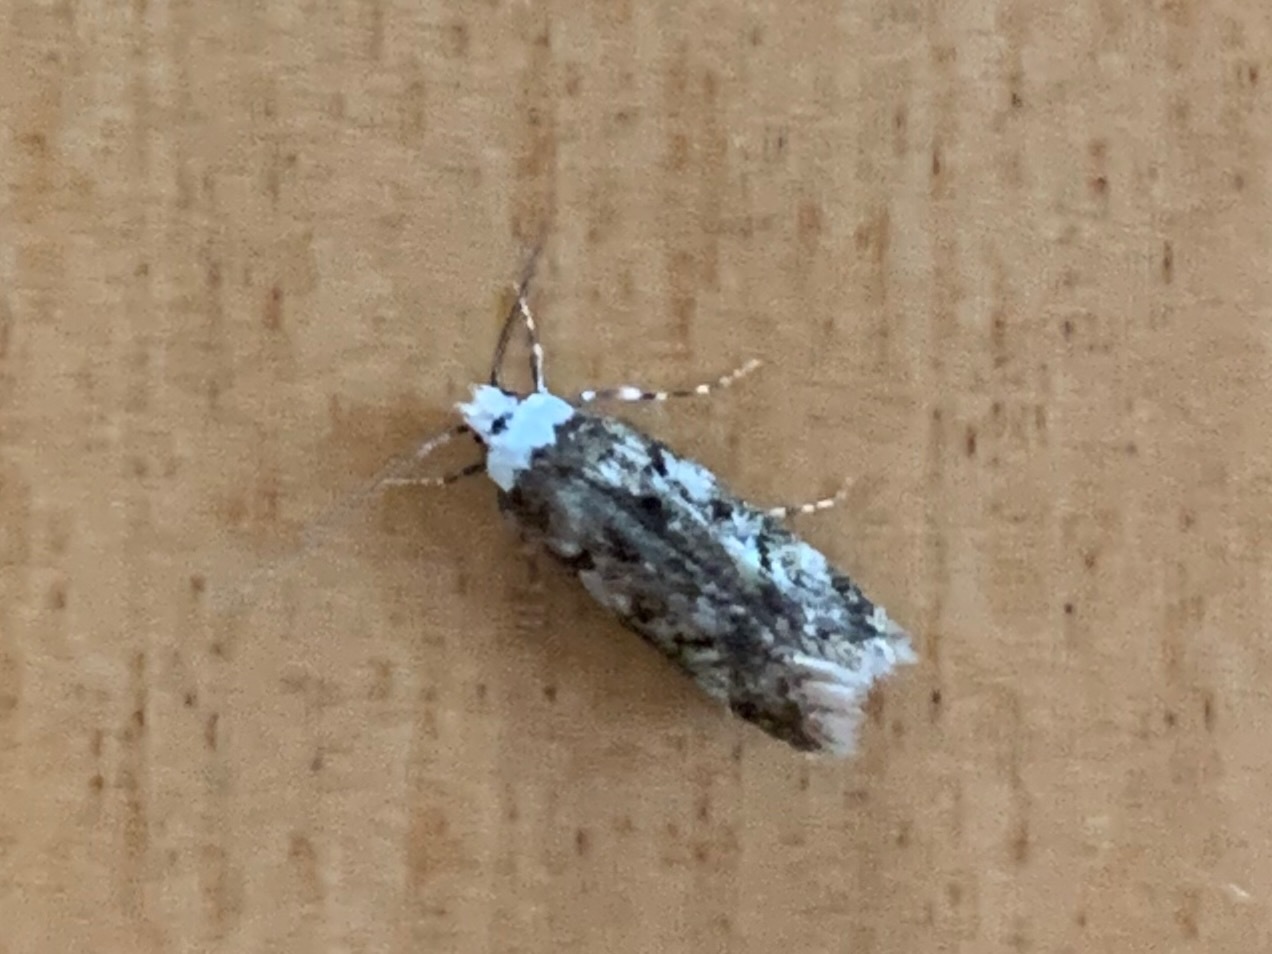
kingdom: Animalia
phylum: Arthropoda
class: Insecta
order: Lepidoptera
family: Oecophoridae
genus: Endrosis
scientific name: Endrosis sarcitrella
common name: White-shouldered house moth
